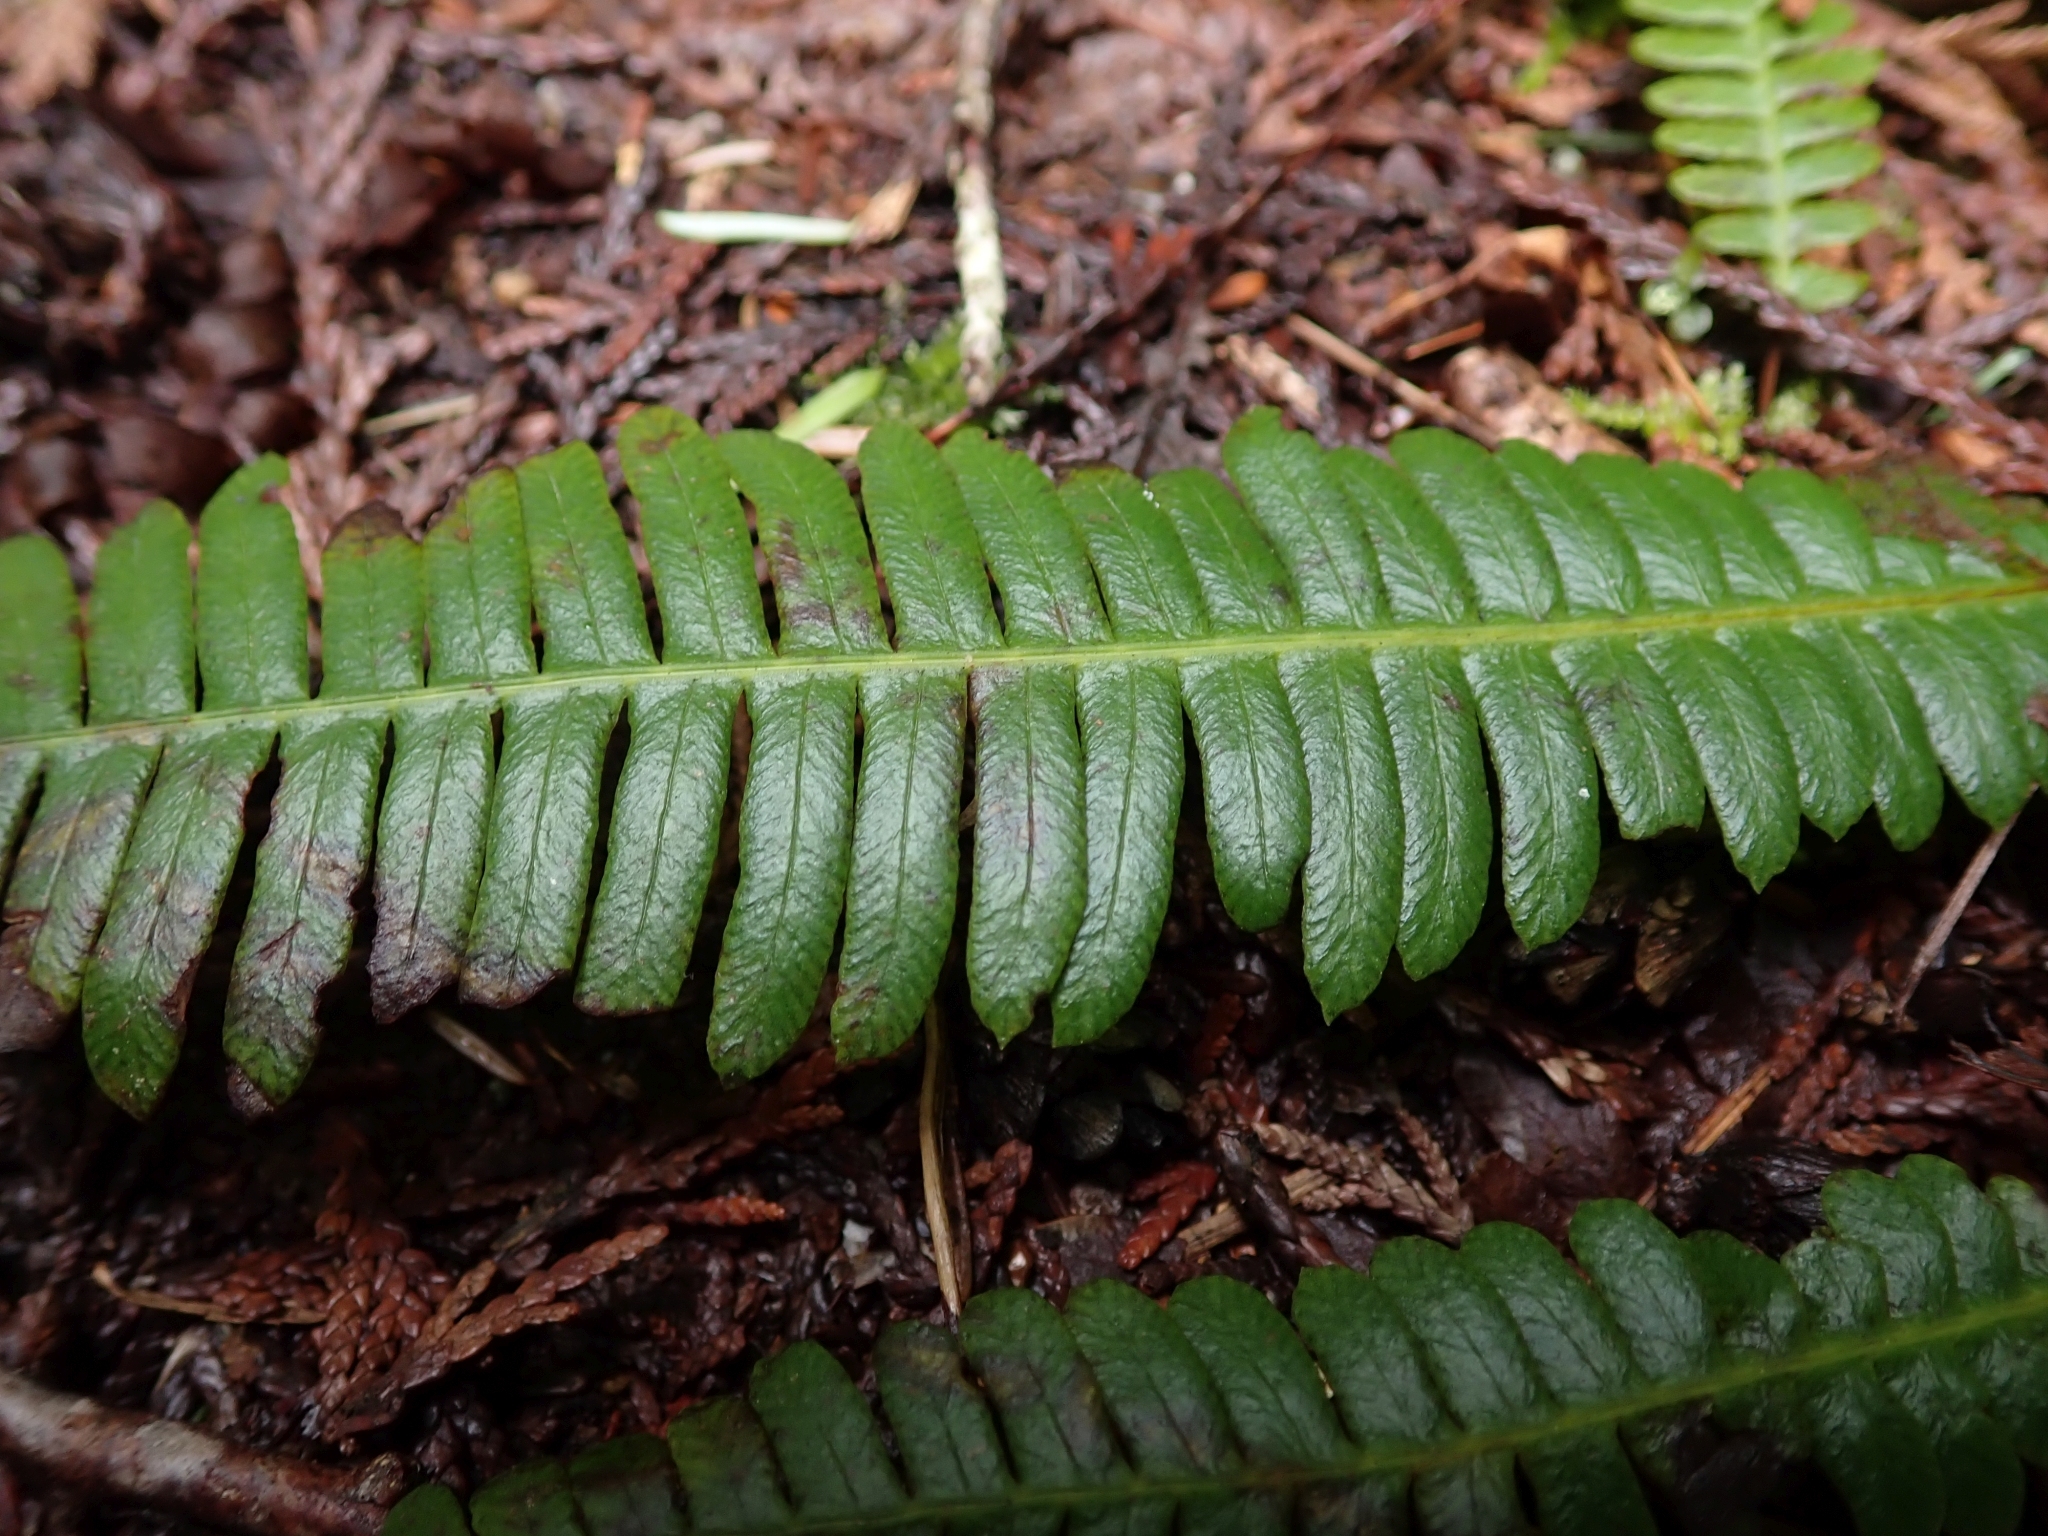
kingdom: Plantae
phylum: Tracheophyta
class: Polypodiopsida
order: Polypodiales
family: Blechnaceae
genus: Struthiopteris
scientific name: Struthiopteris spicant
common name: Deer fern
